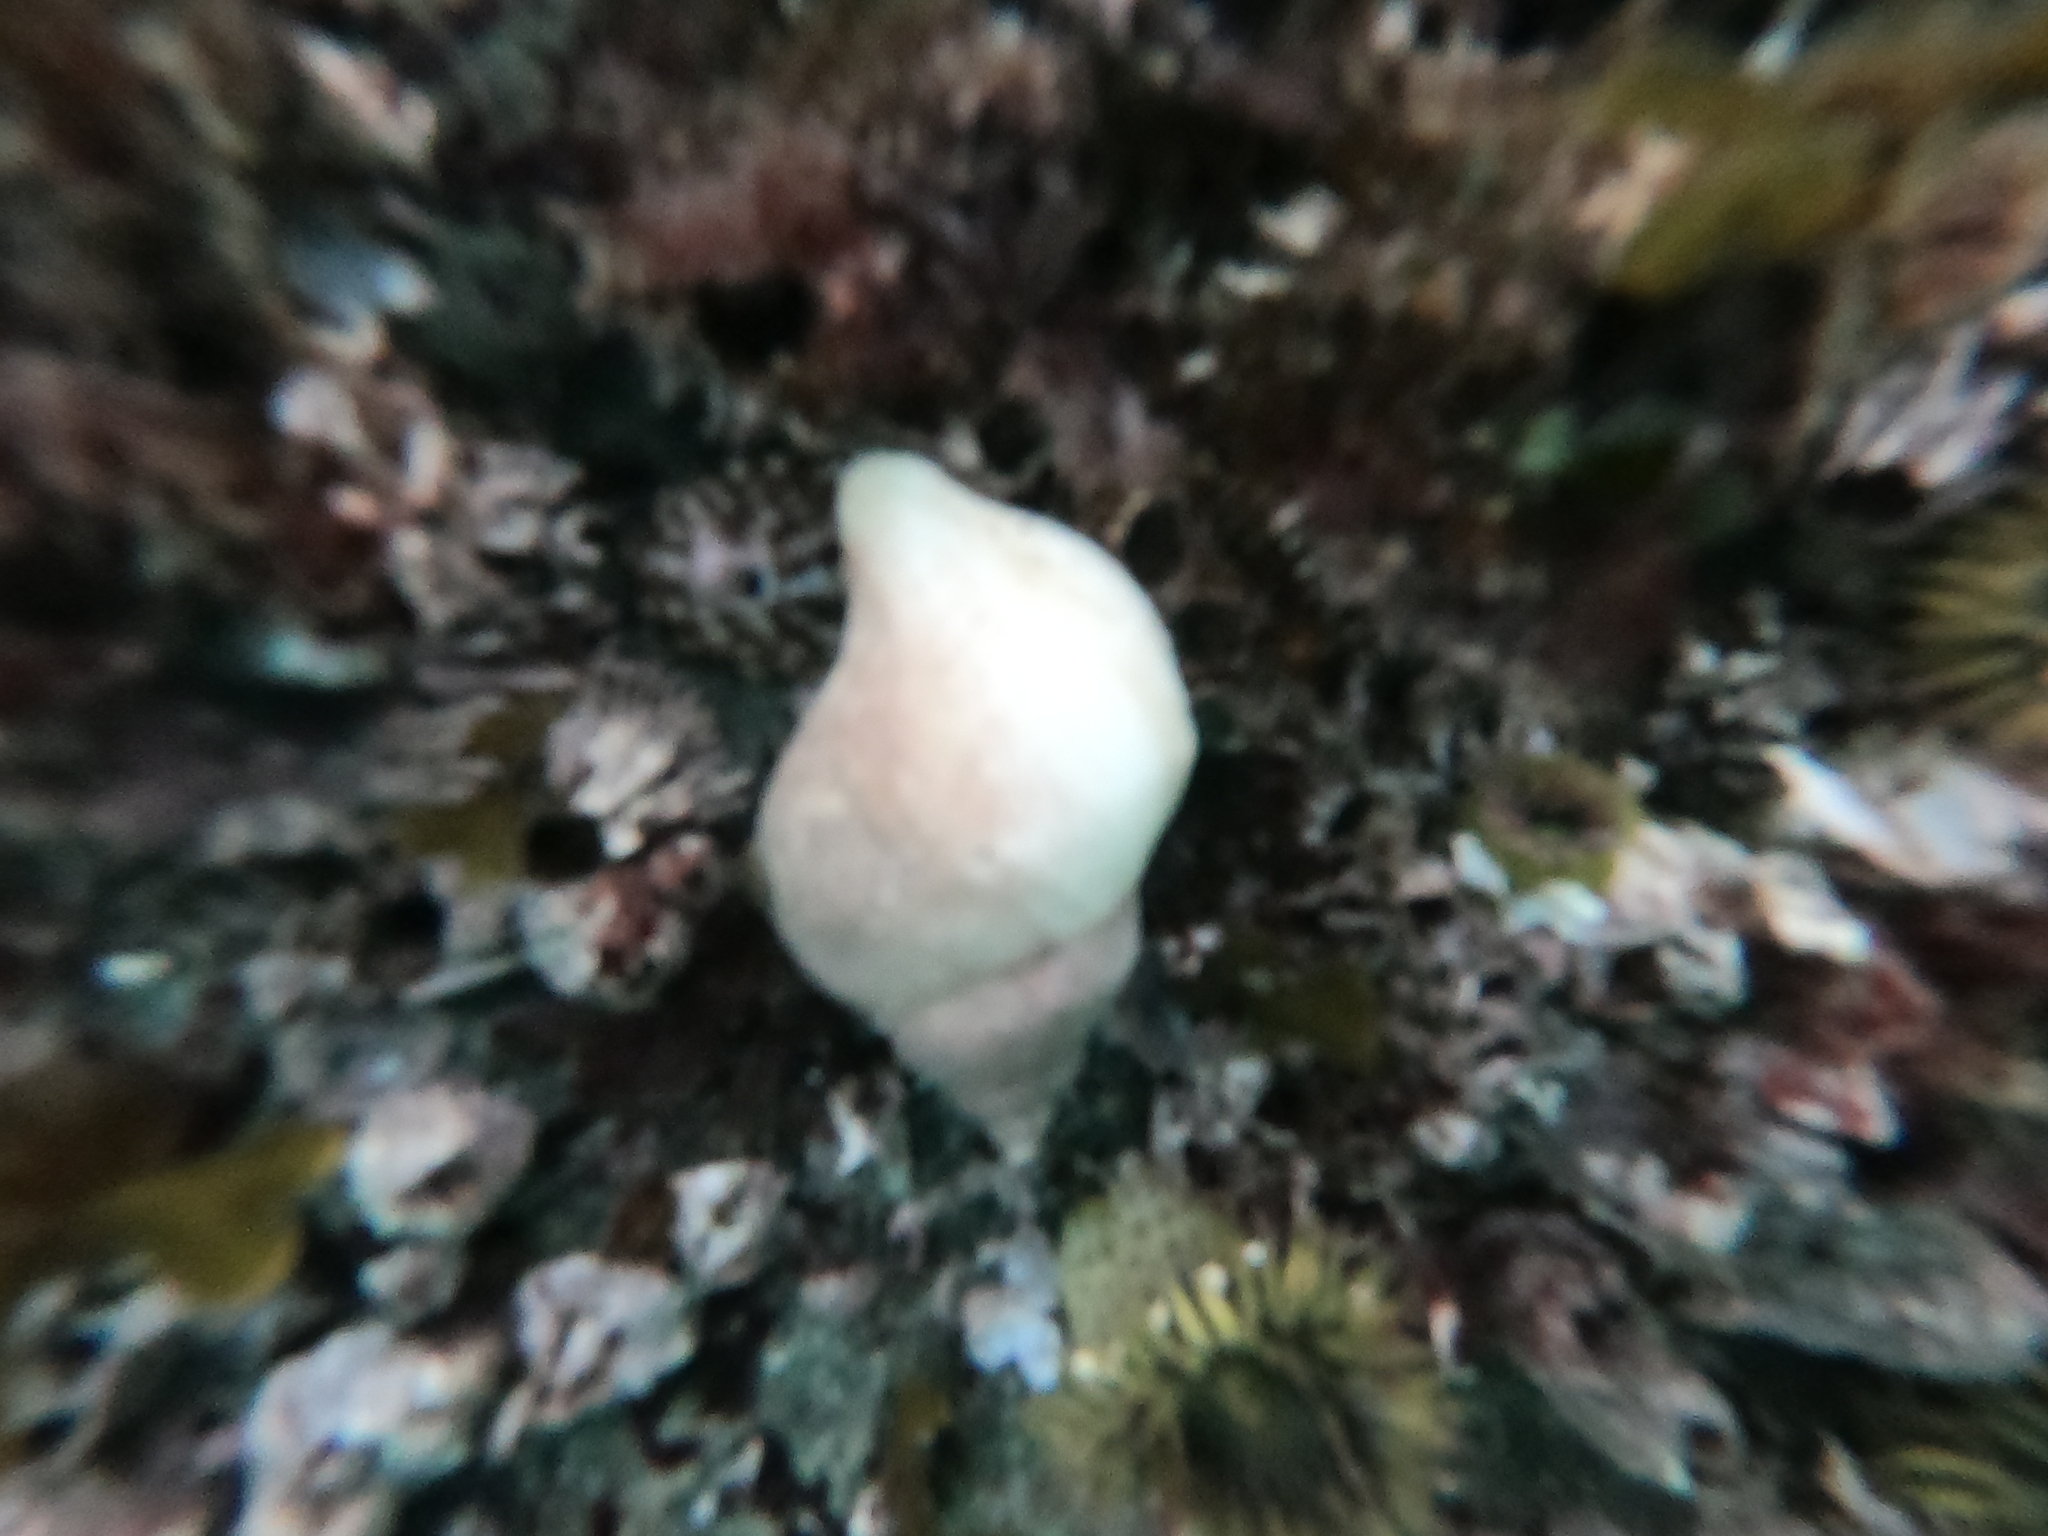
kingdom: Animalia
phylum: Mollusca
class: Gastropoda
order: Neogastropoda
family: Muricidae
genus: Nucella
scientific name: Nucella lamellosa
